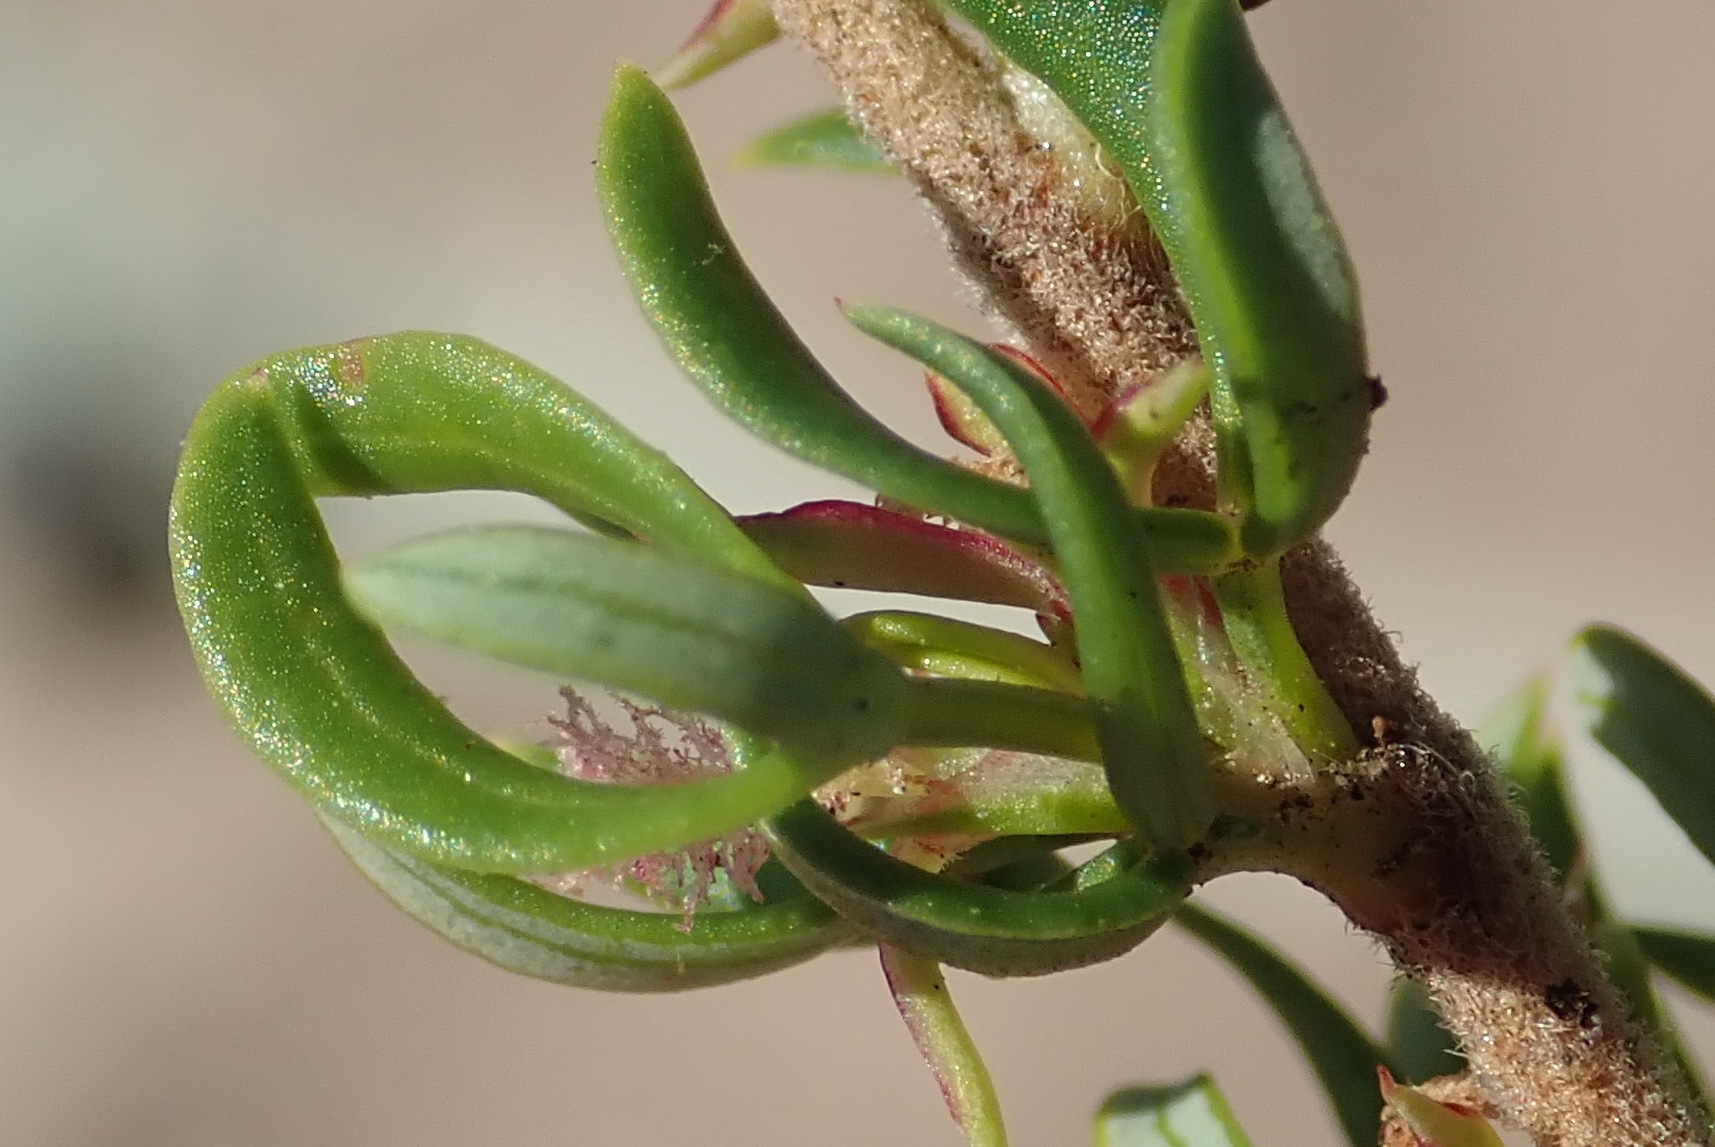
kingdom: Plantae
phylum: Tracheophyta
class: Magnoliopsida
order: Rosales
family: Rosaceae
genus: Cliffortia
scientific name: Cliffortia falcata
